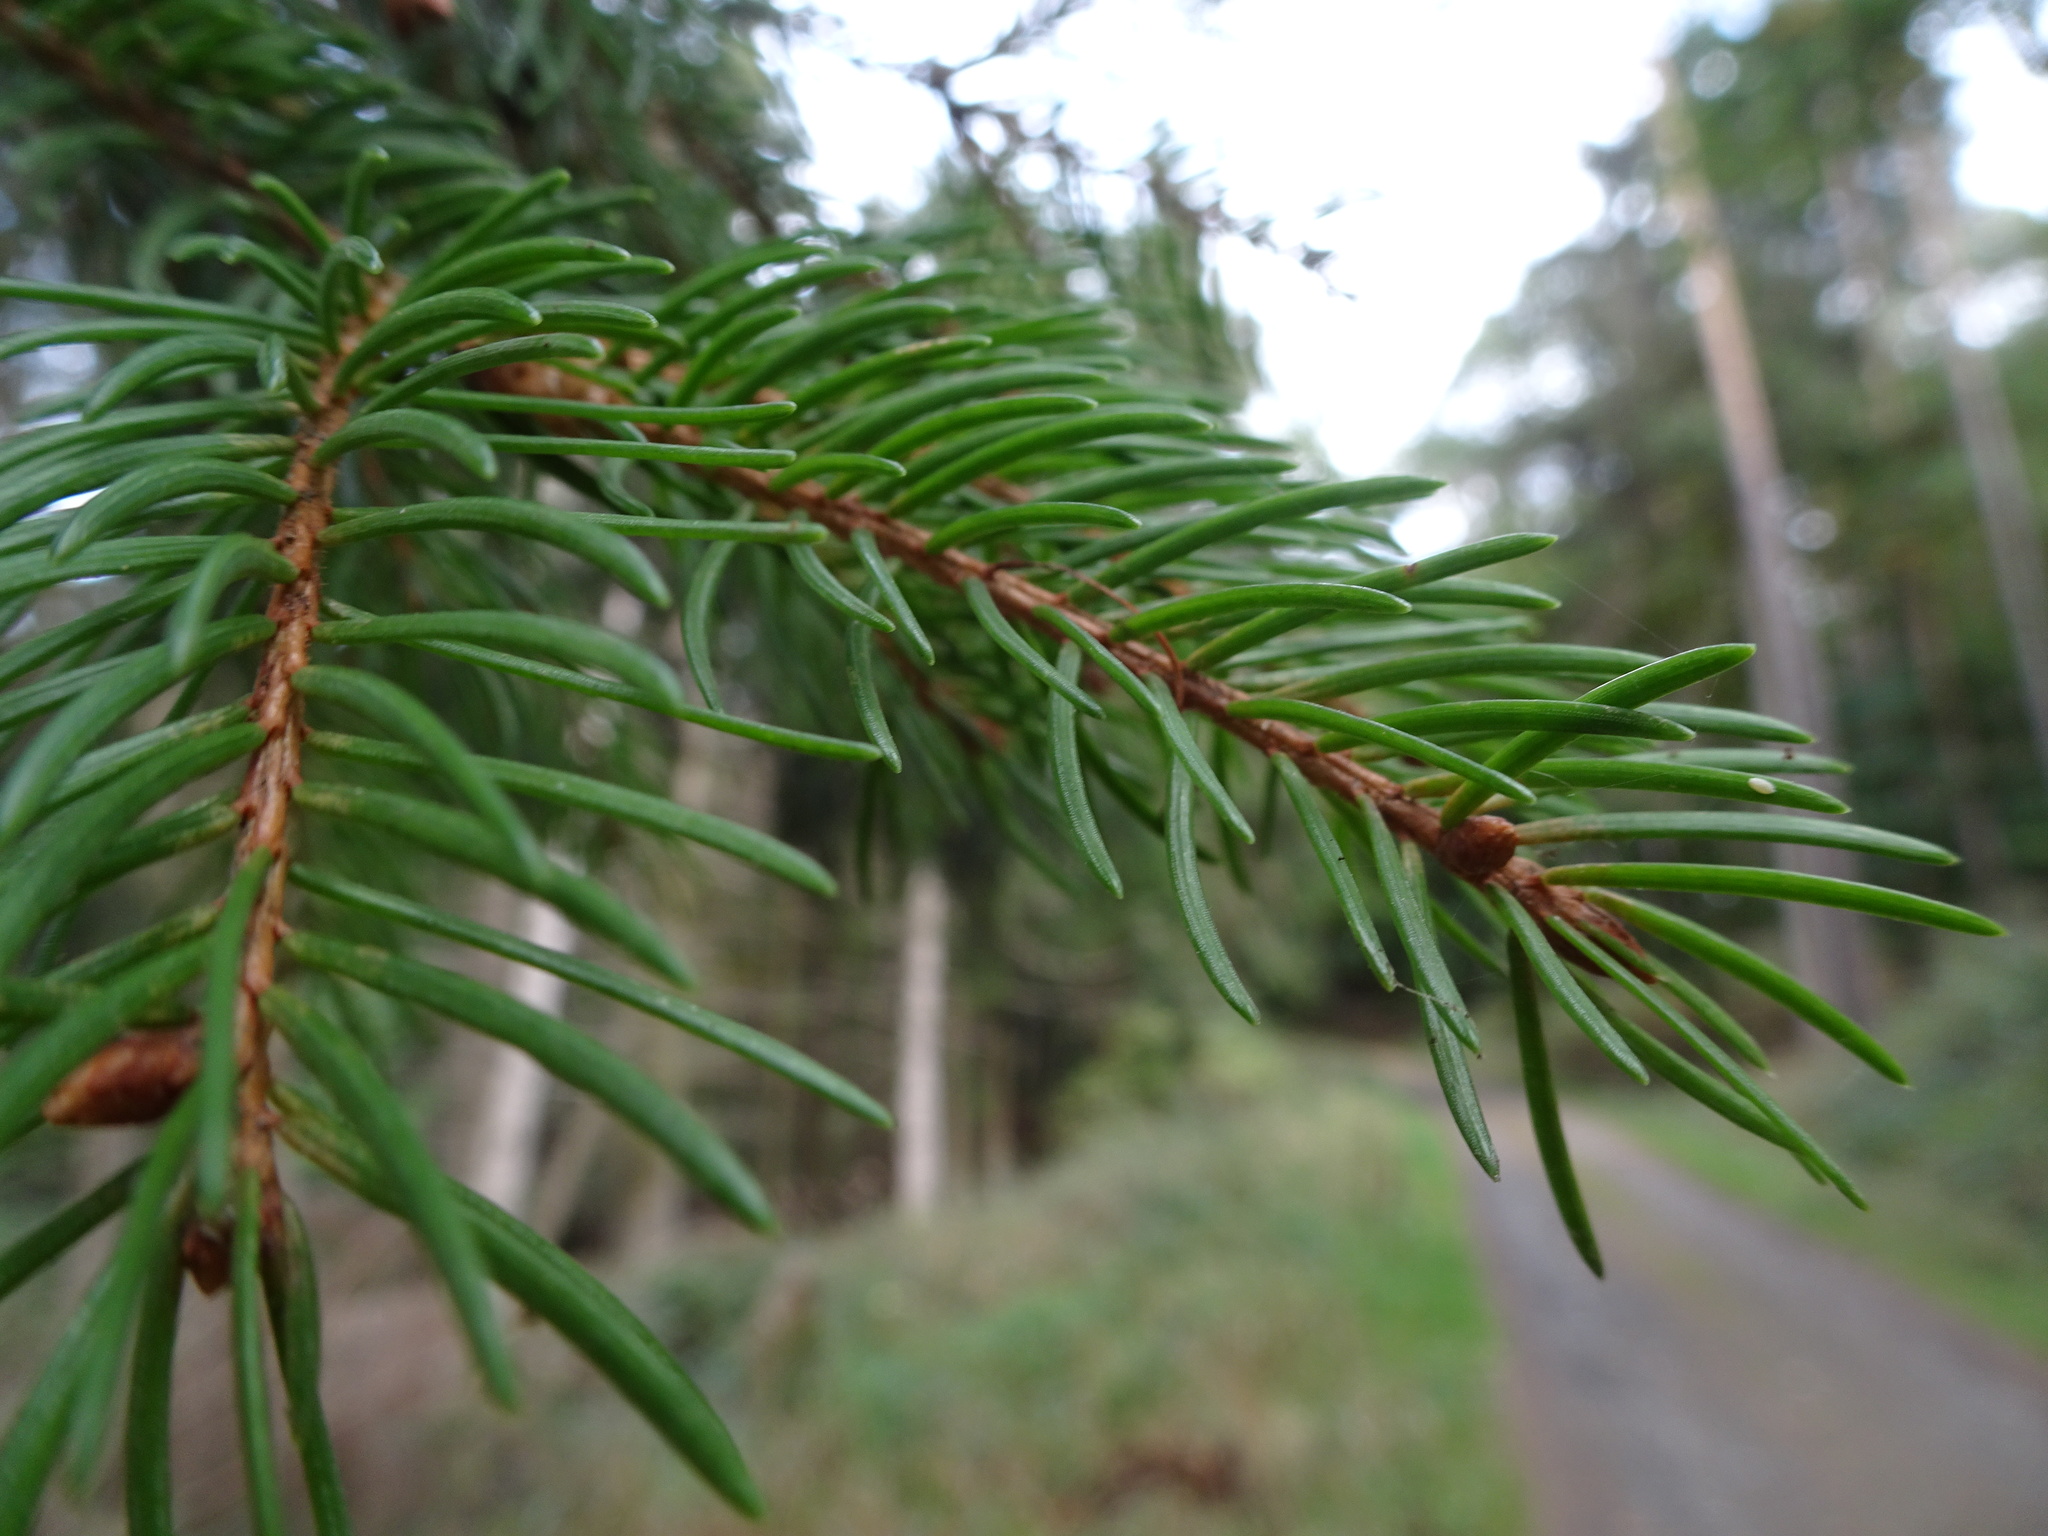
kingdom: Plantae
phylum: Tracheophyta
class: Pinopsida
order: Pinales
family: Pinaceae
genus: Picea
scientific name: Picea abies
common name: Norway spruce
